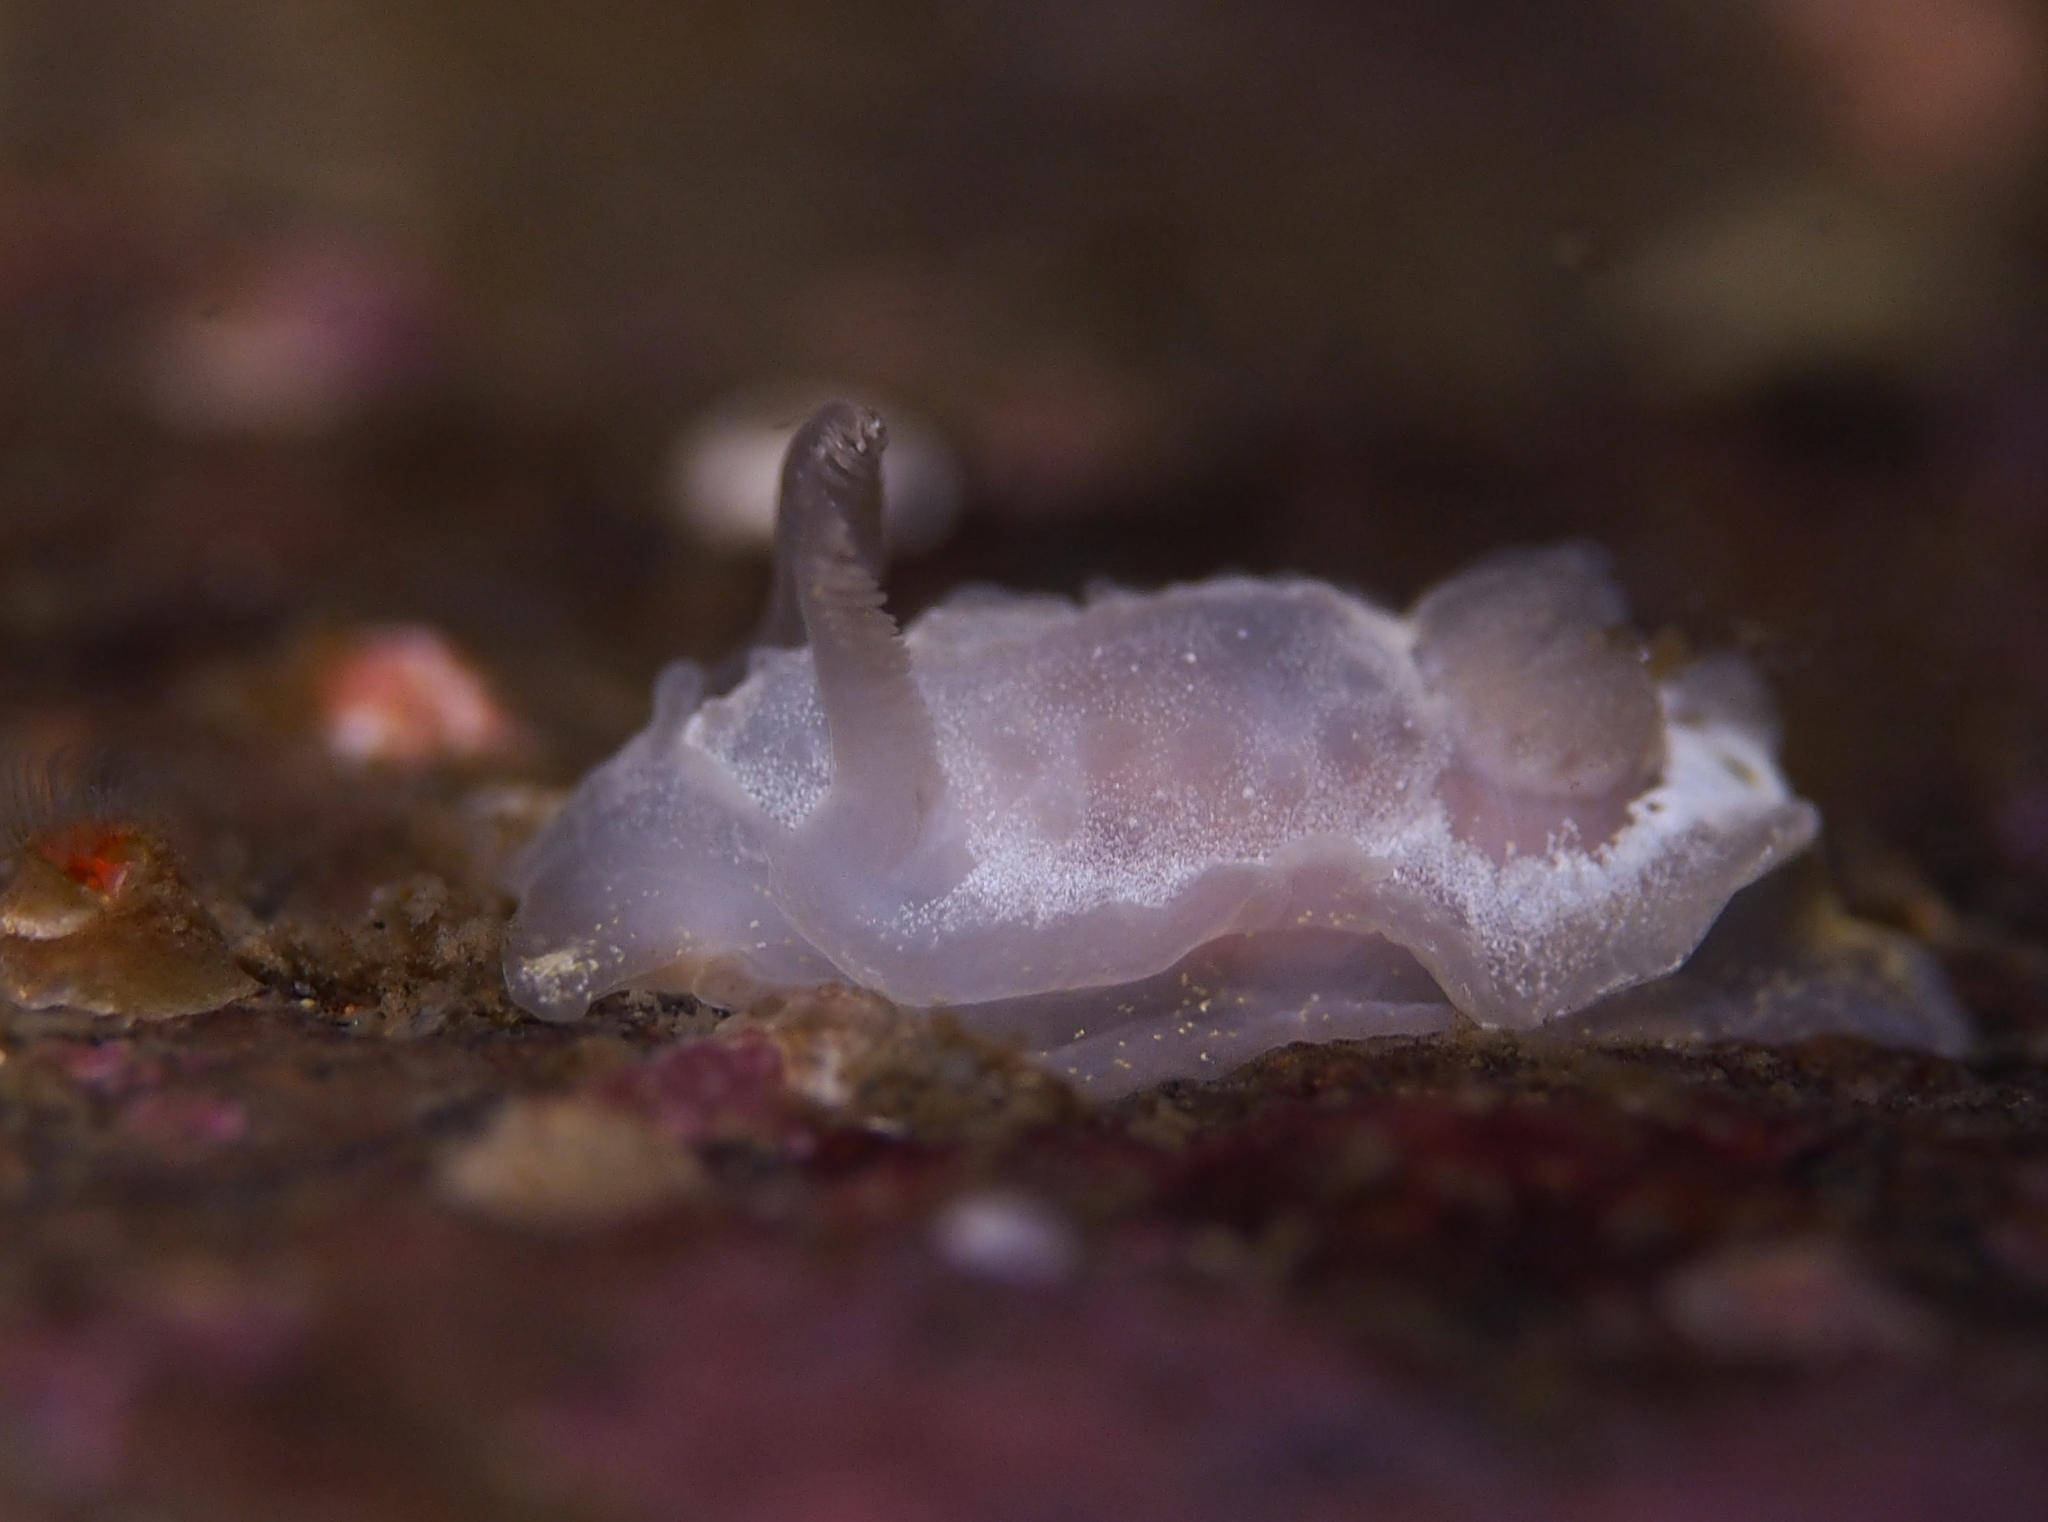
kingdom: Animalia
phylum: Mollusca
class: Gastropoda
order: Nudibranchia
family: Goniodorididae
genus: Okenia
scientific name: Okenia
